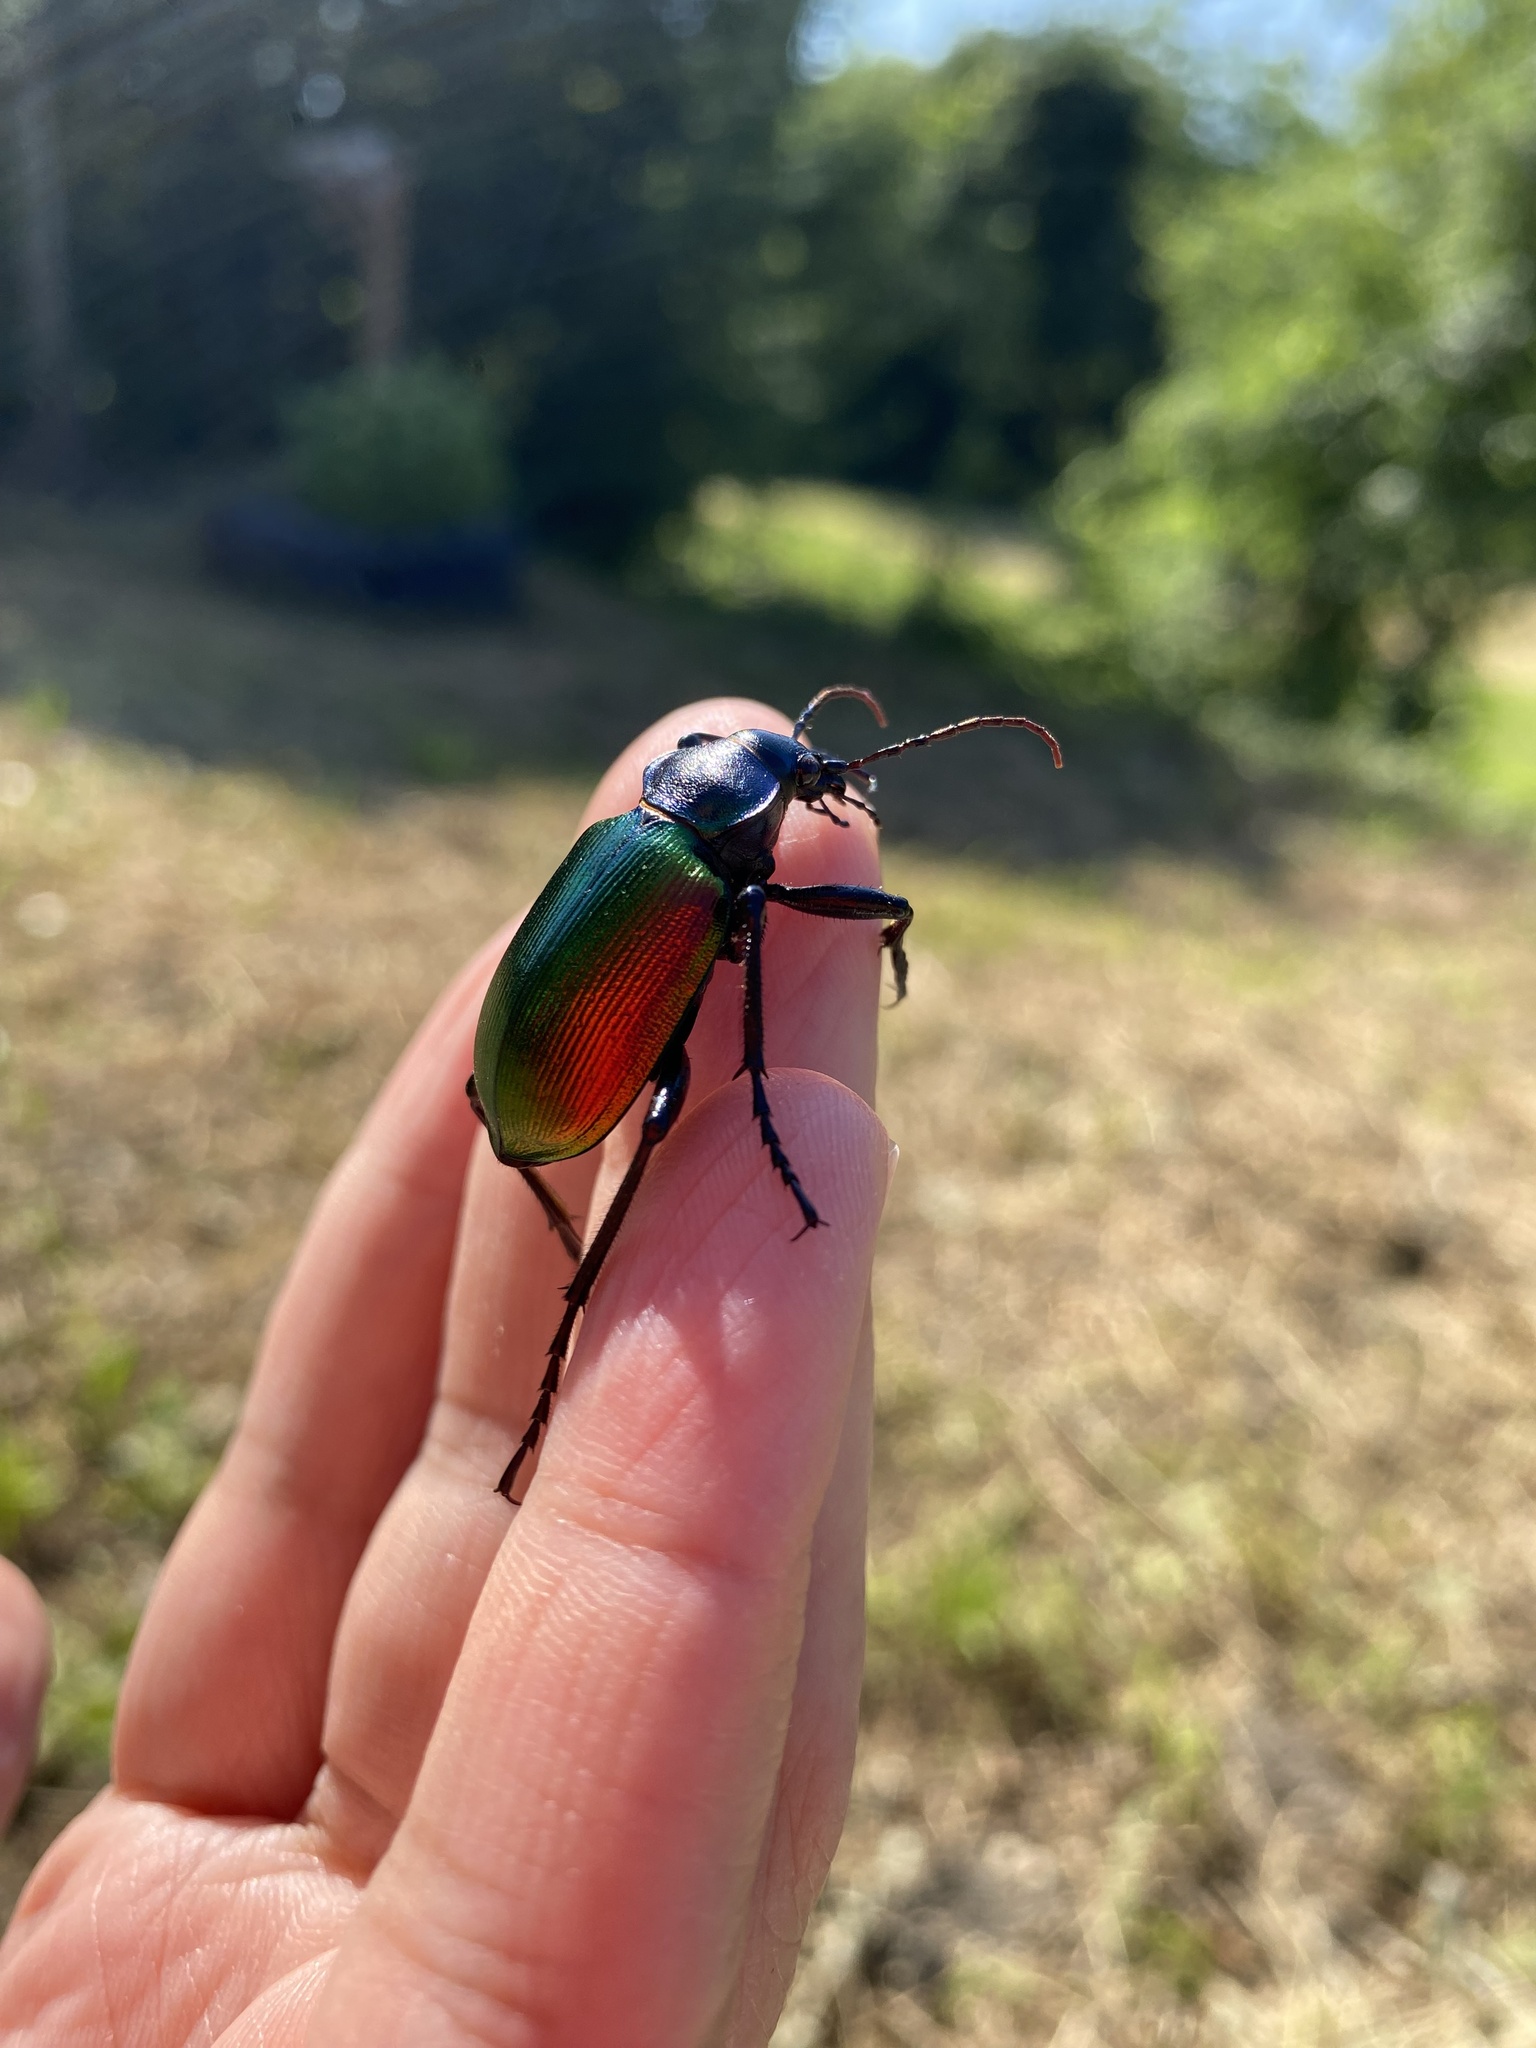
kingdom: Animalia
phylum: Arthropoda
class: Insecta
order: Coleoptera
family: Carabidae
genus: Calosoma
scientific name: Calosoma sycophanta
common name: Forest caterpillar hunter
